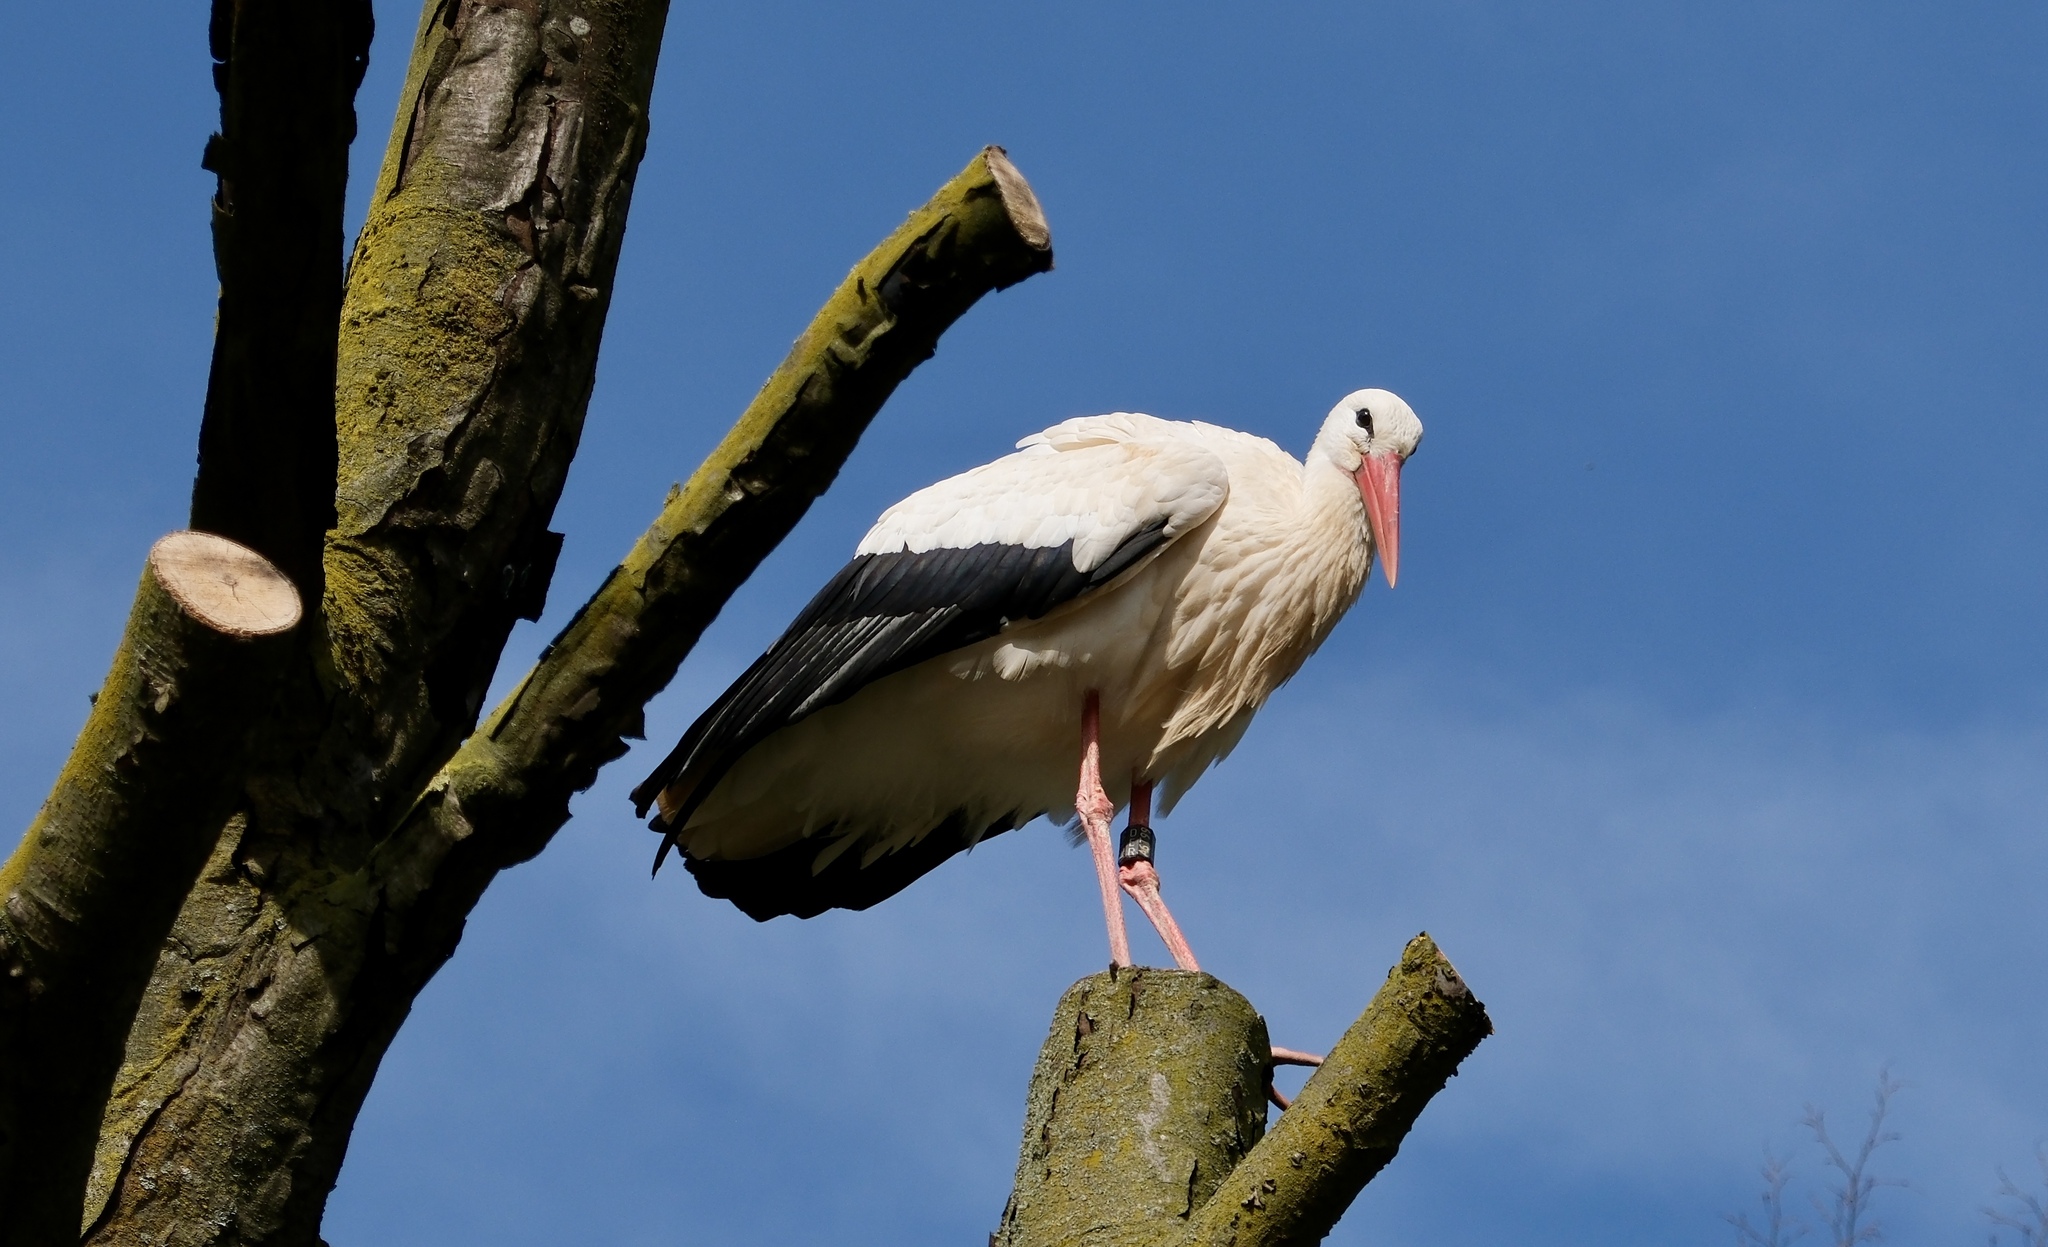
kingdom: Animalia
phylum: Chordata
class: Aves
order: Ciconiiformes
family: Ciconiidae
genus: Ciconia
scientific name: Ciconia ciconia
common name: White stork
